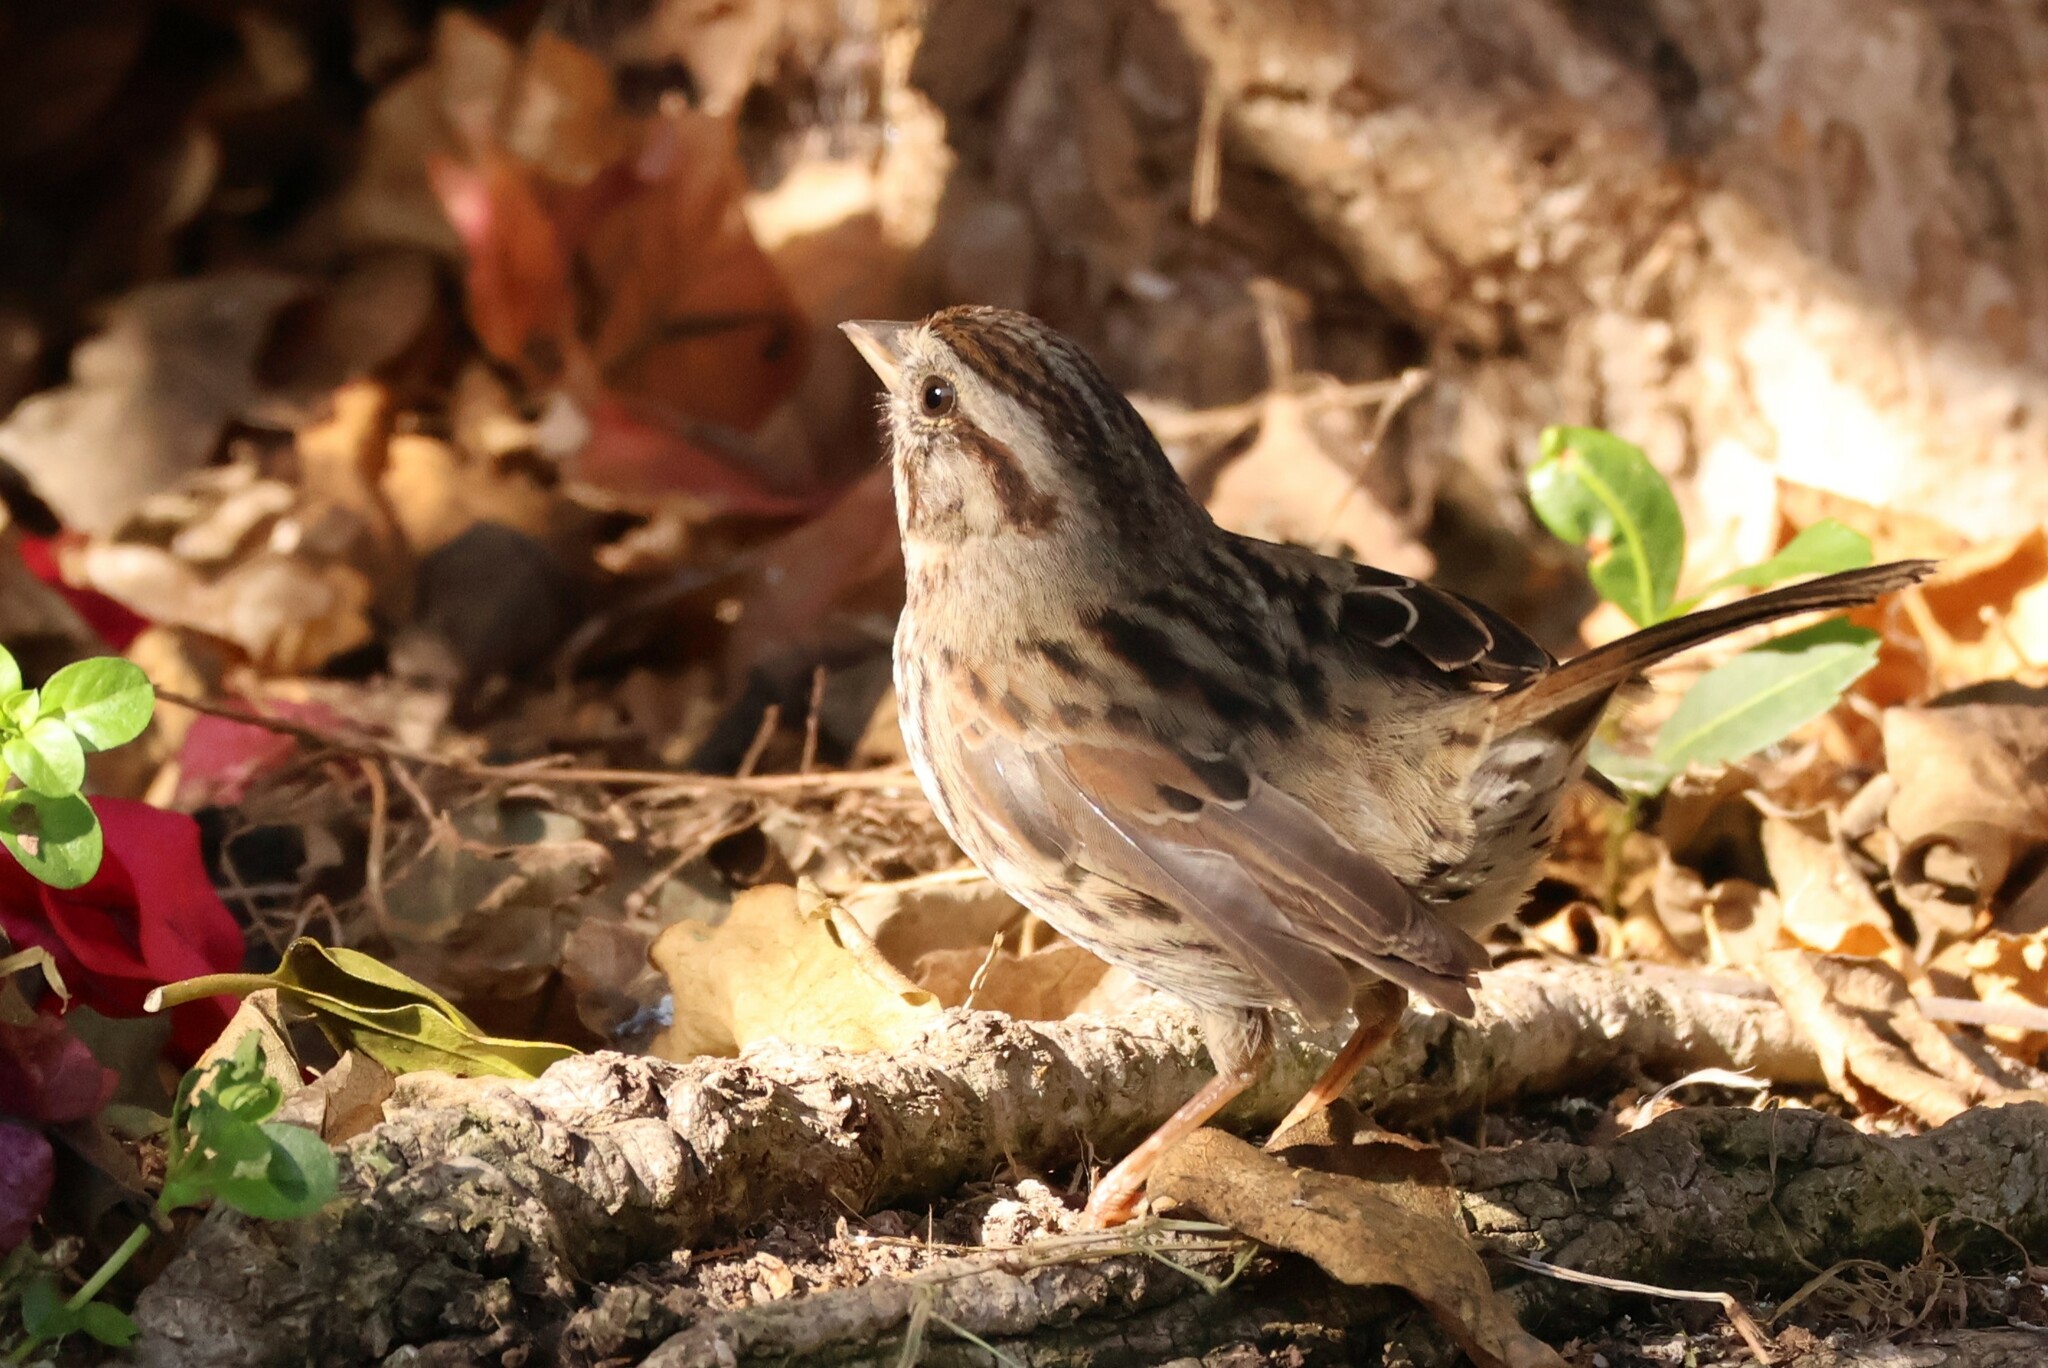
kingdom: Animalia
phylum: Chordata
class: Aves
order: Passeriformes
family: Passerellidae
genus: Melospiza
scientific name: Melospiza melodia
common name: Song sparrow
